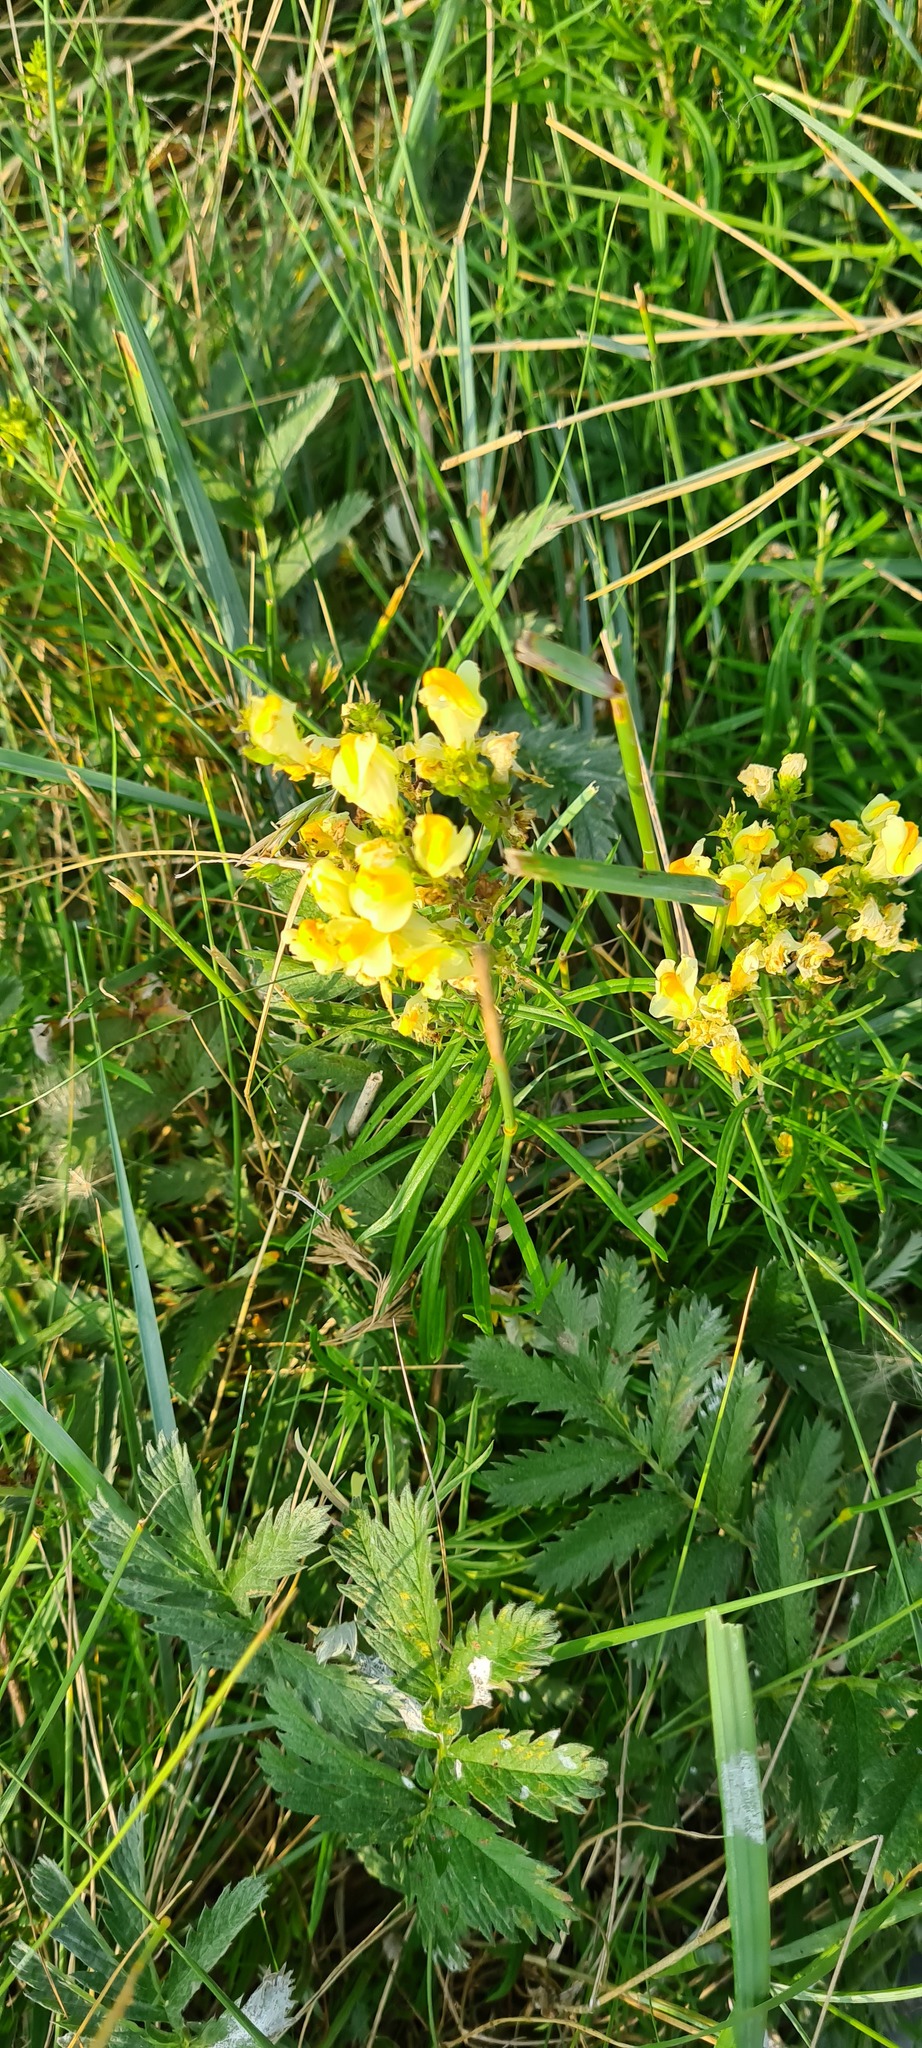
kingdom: Plantae
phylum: Tracheophyta
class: Magnoliopsida
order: Lamiales
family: Plantaginaceae
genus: Linaria
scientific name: Linaria vulgaris
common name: Butter and eggs
